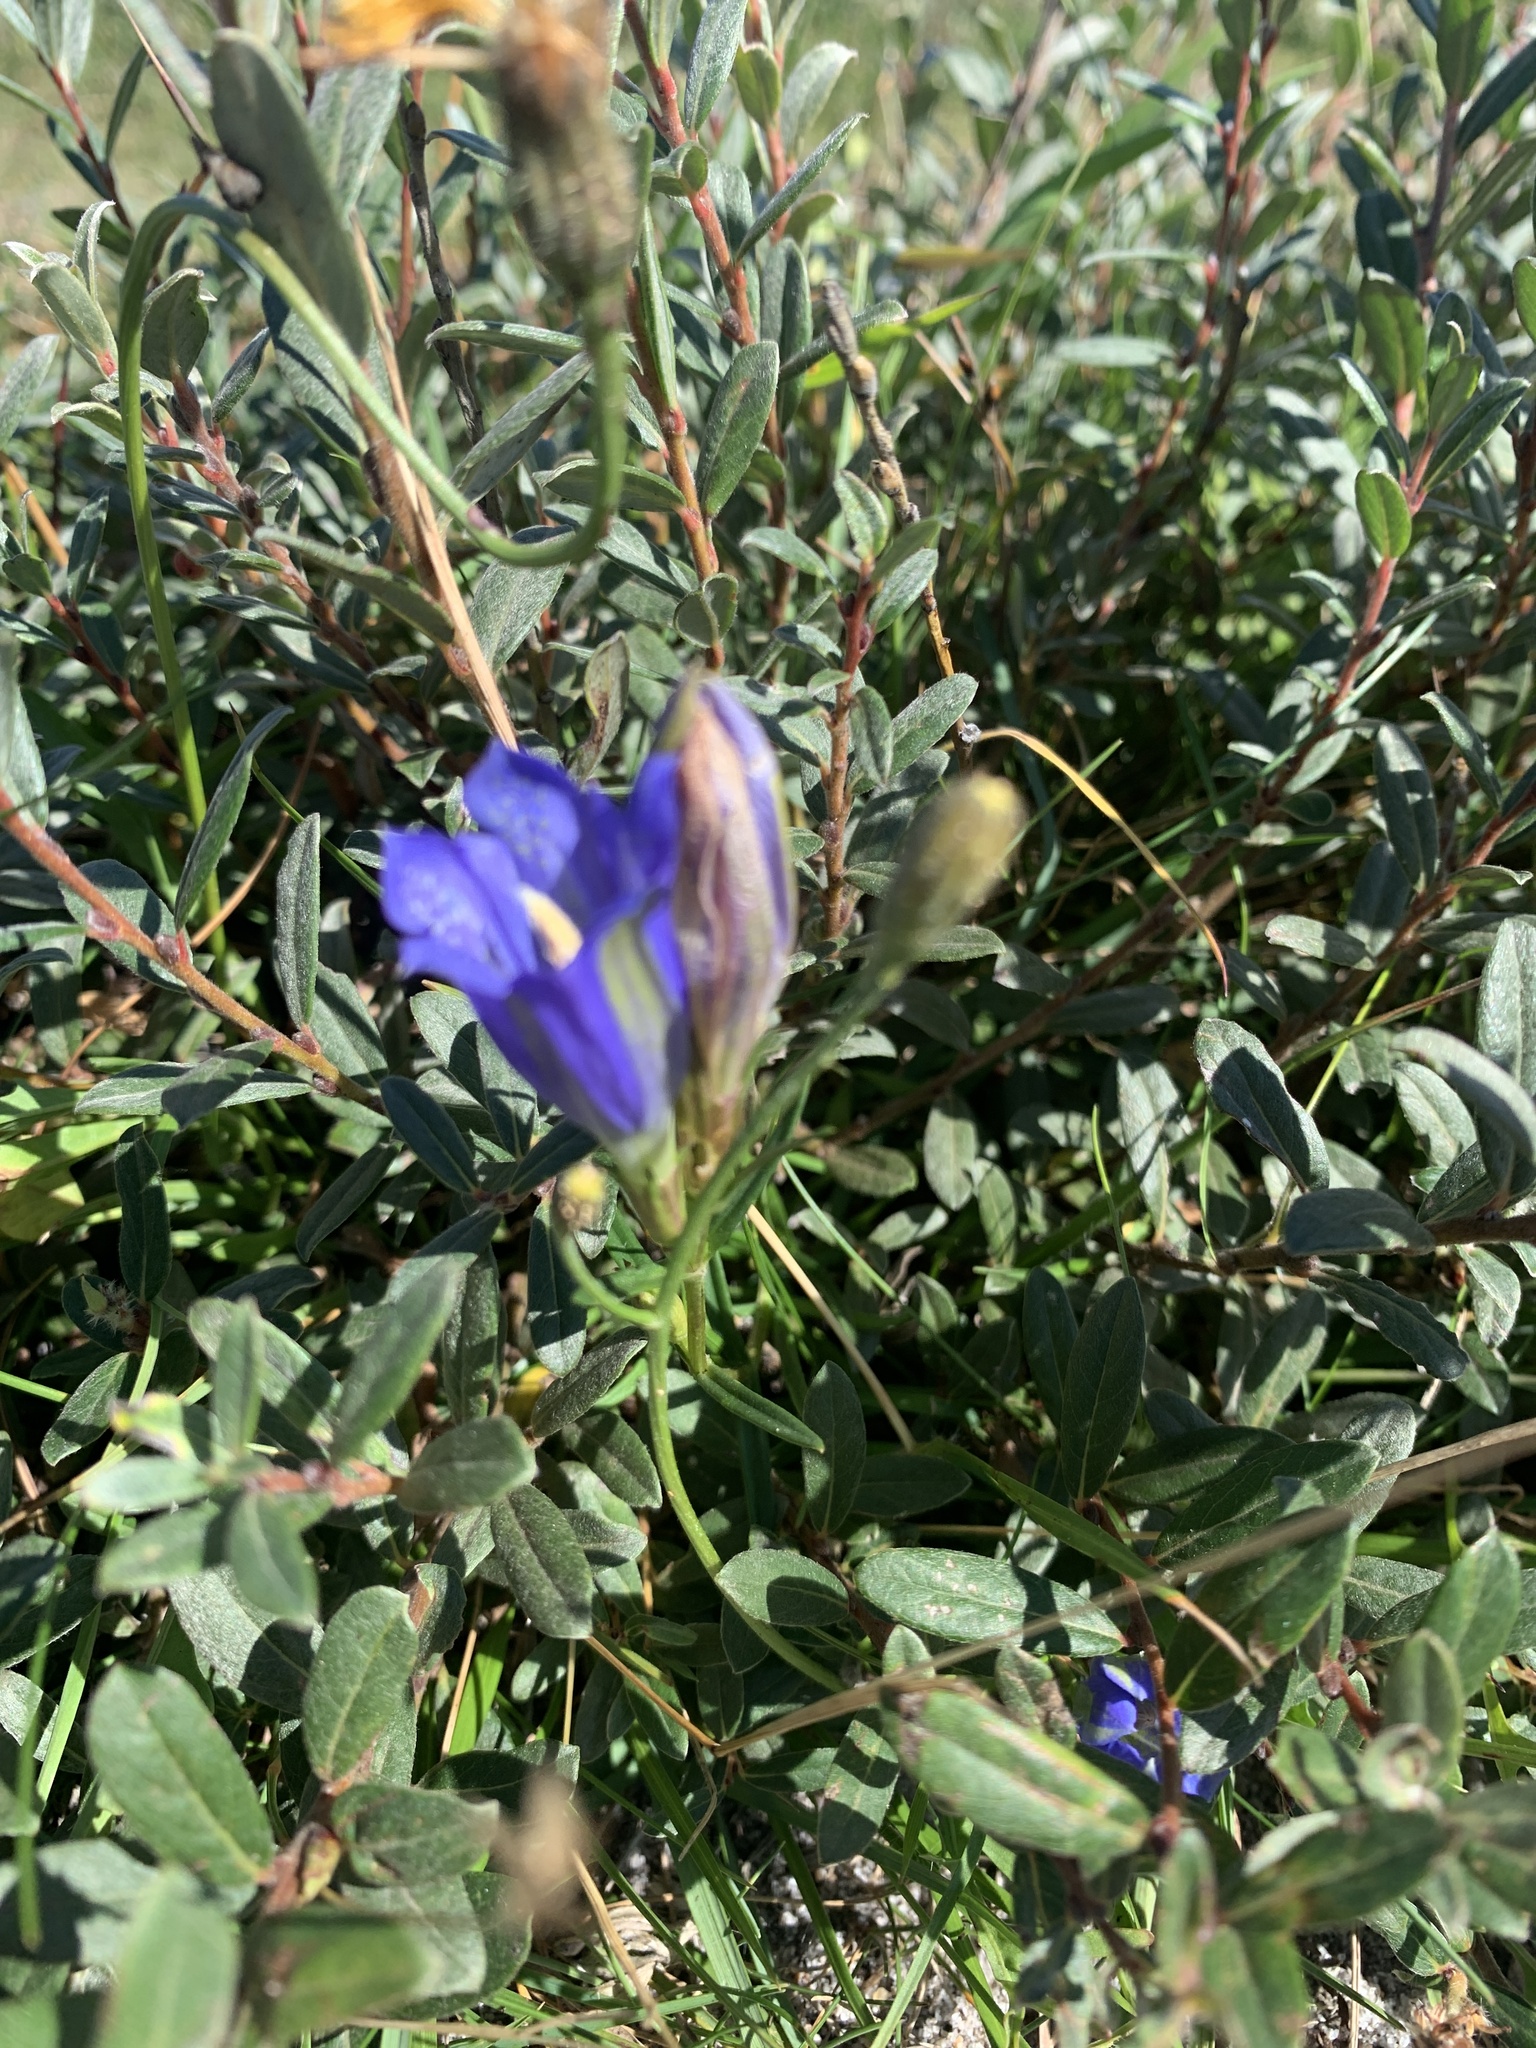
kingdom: Plantae
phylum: Tracheophyta
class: Magnoliopsida
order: Gentianales
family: Gentianaceae
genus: Gentiana
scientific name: Gentiana pneumonanthe
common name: Marsh gentian
